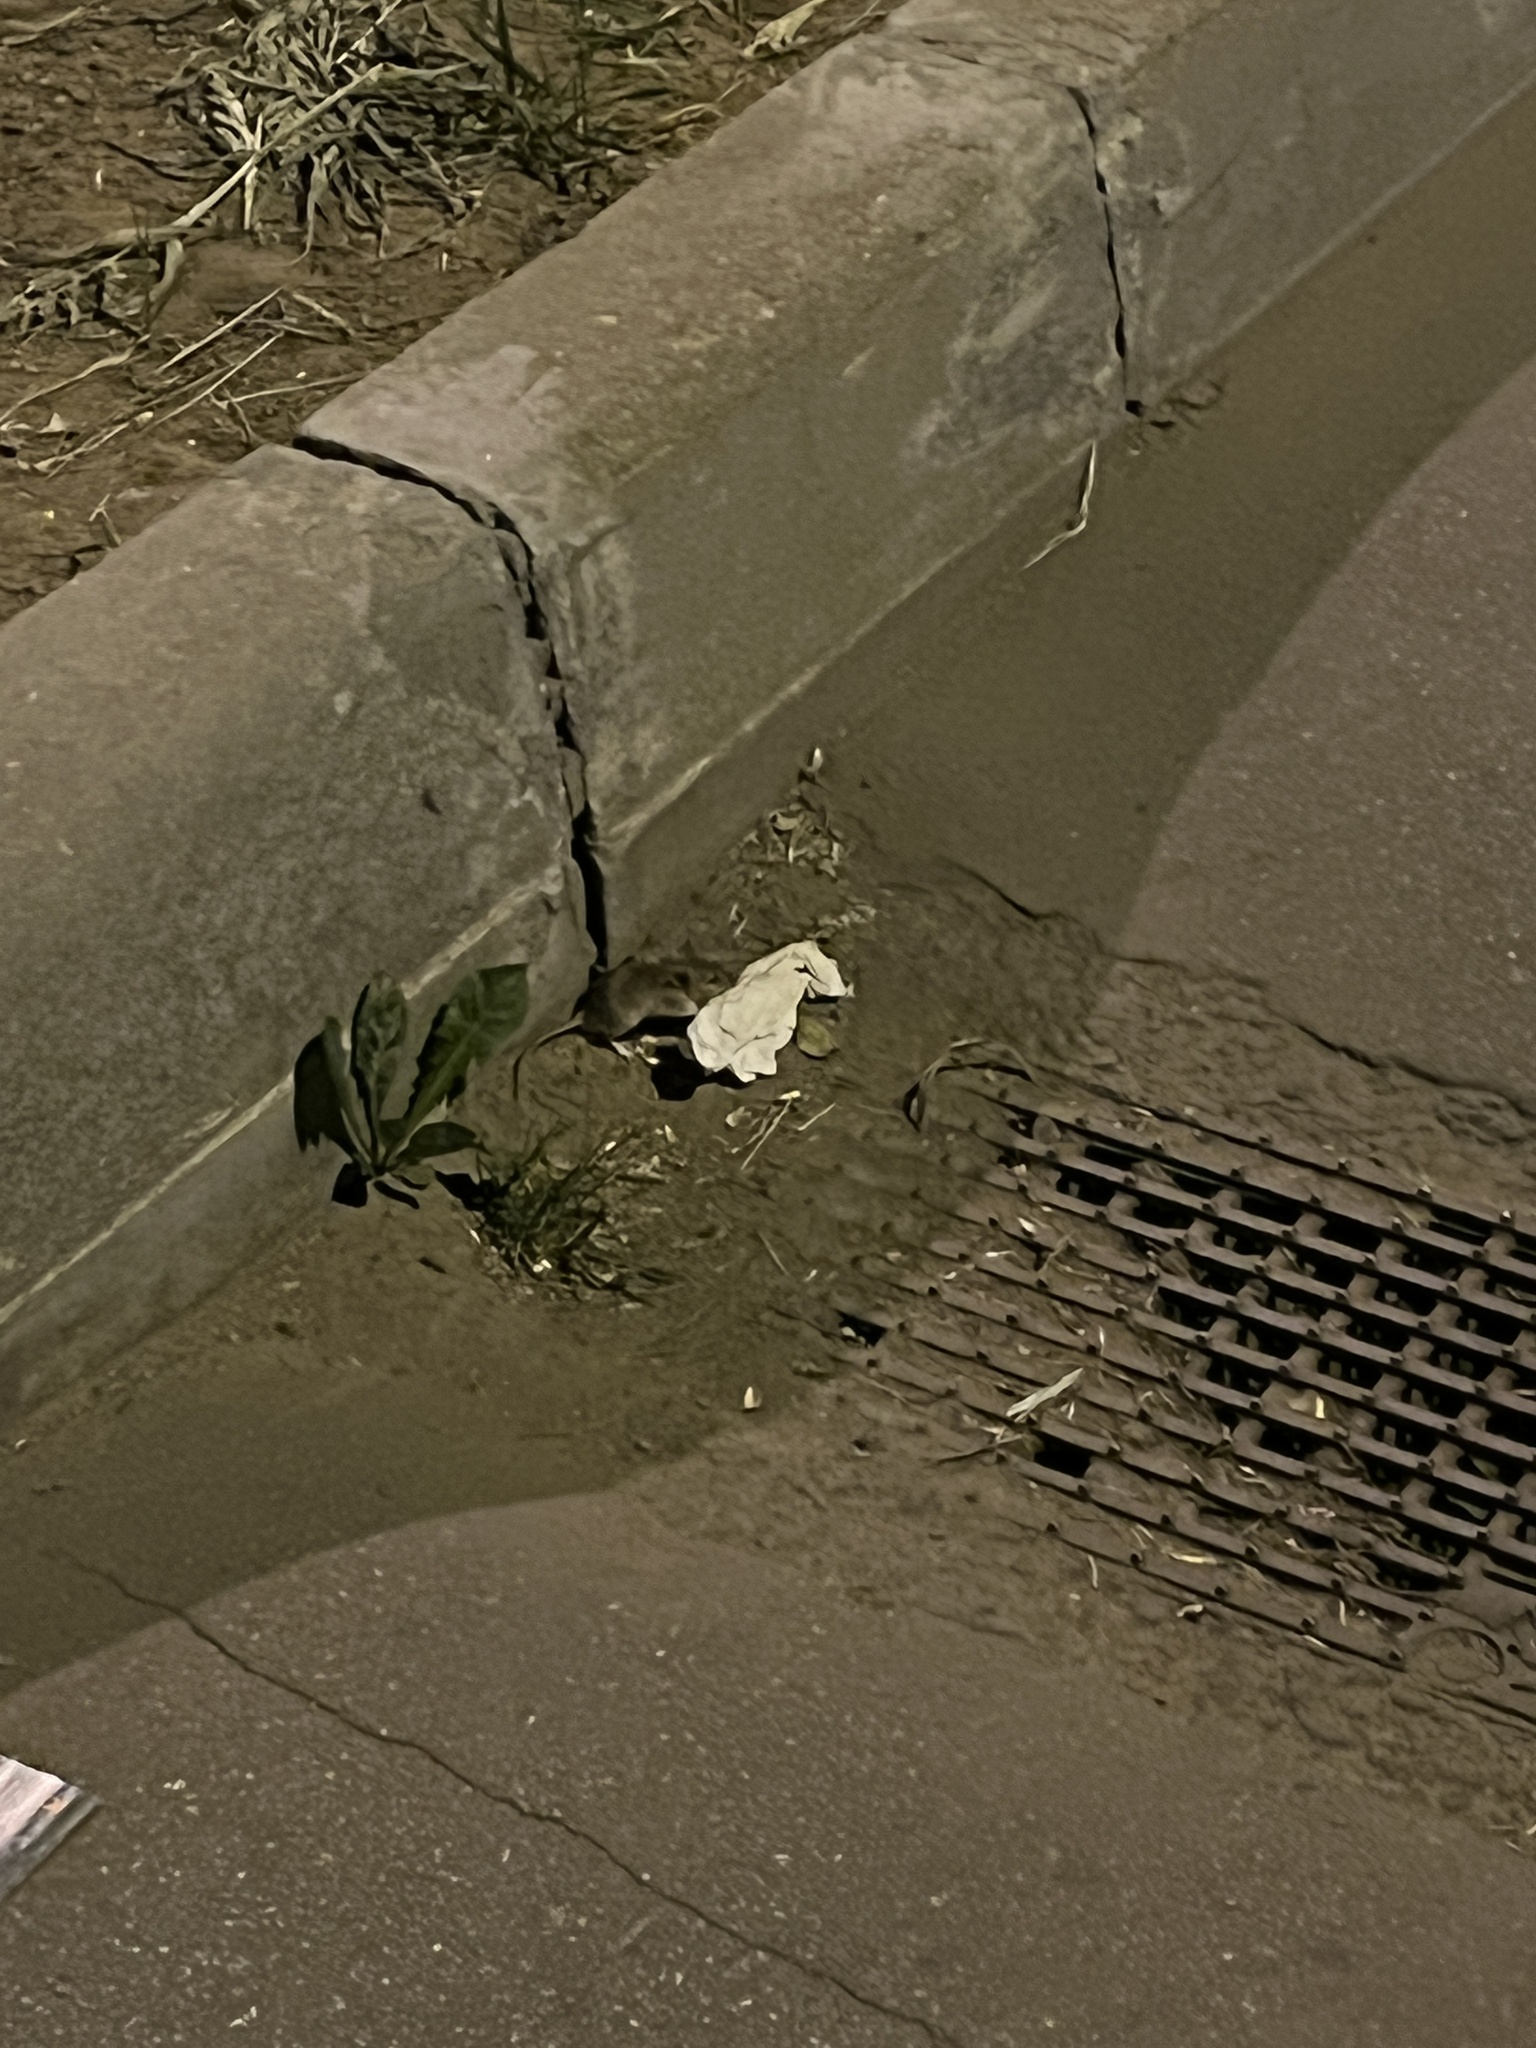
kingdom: Animalia
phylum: Chordata
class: Mammalia
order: Rodentia
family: Muridae
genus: Rattus
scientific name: Rattus norvegicus
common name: Brown rat
